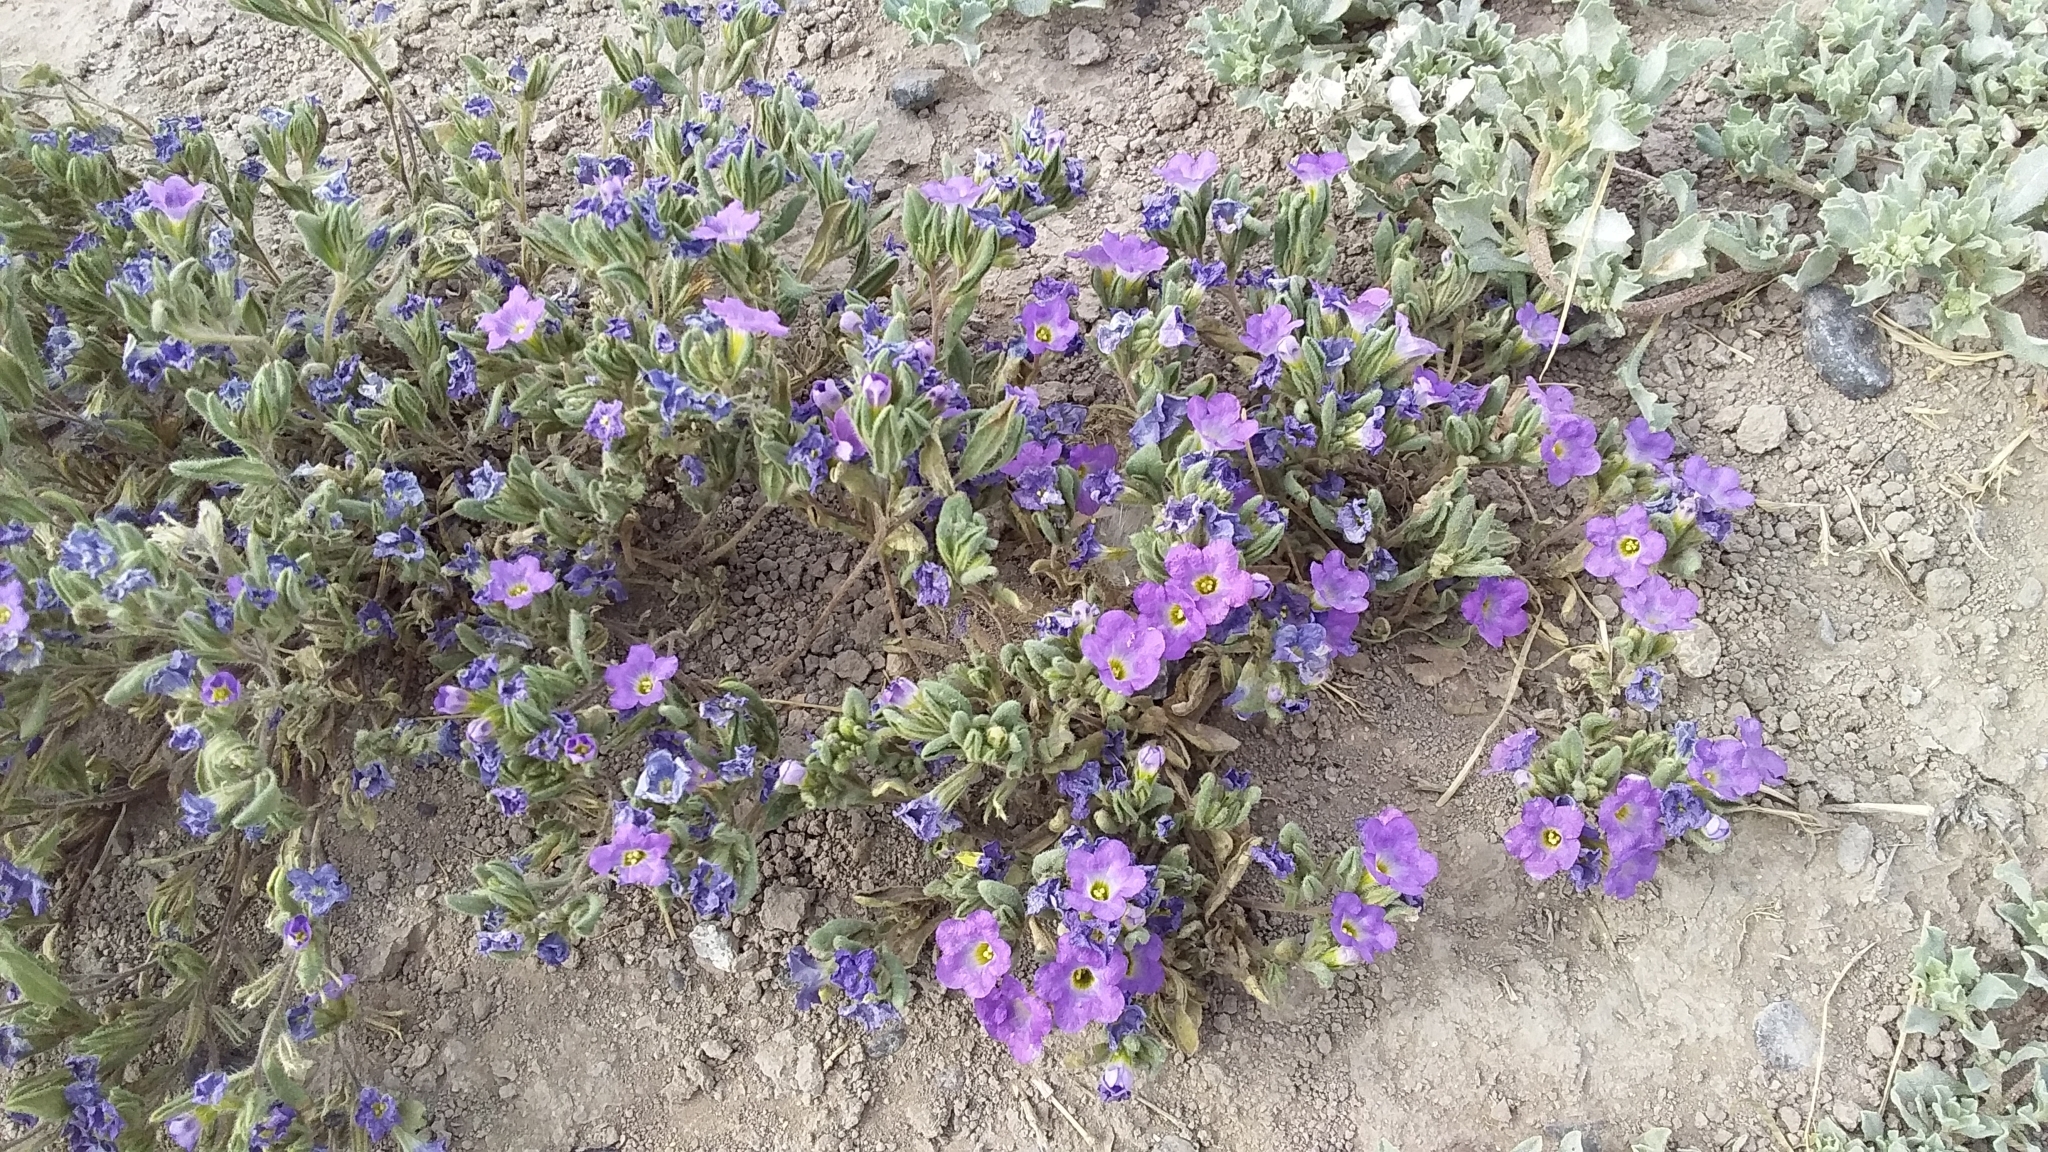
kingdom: Plantae
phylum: Tracheophyta
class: Magnoliopsida
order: Boraginales
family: Namaceae
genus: Nama
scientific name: Nama hispida
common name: Bristly nama
